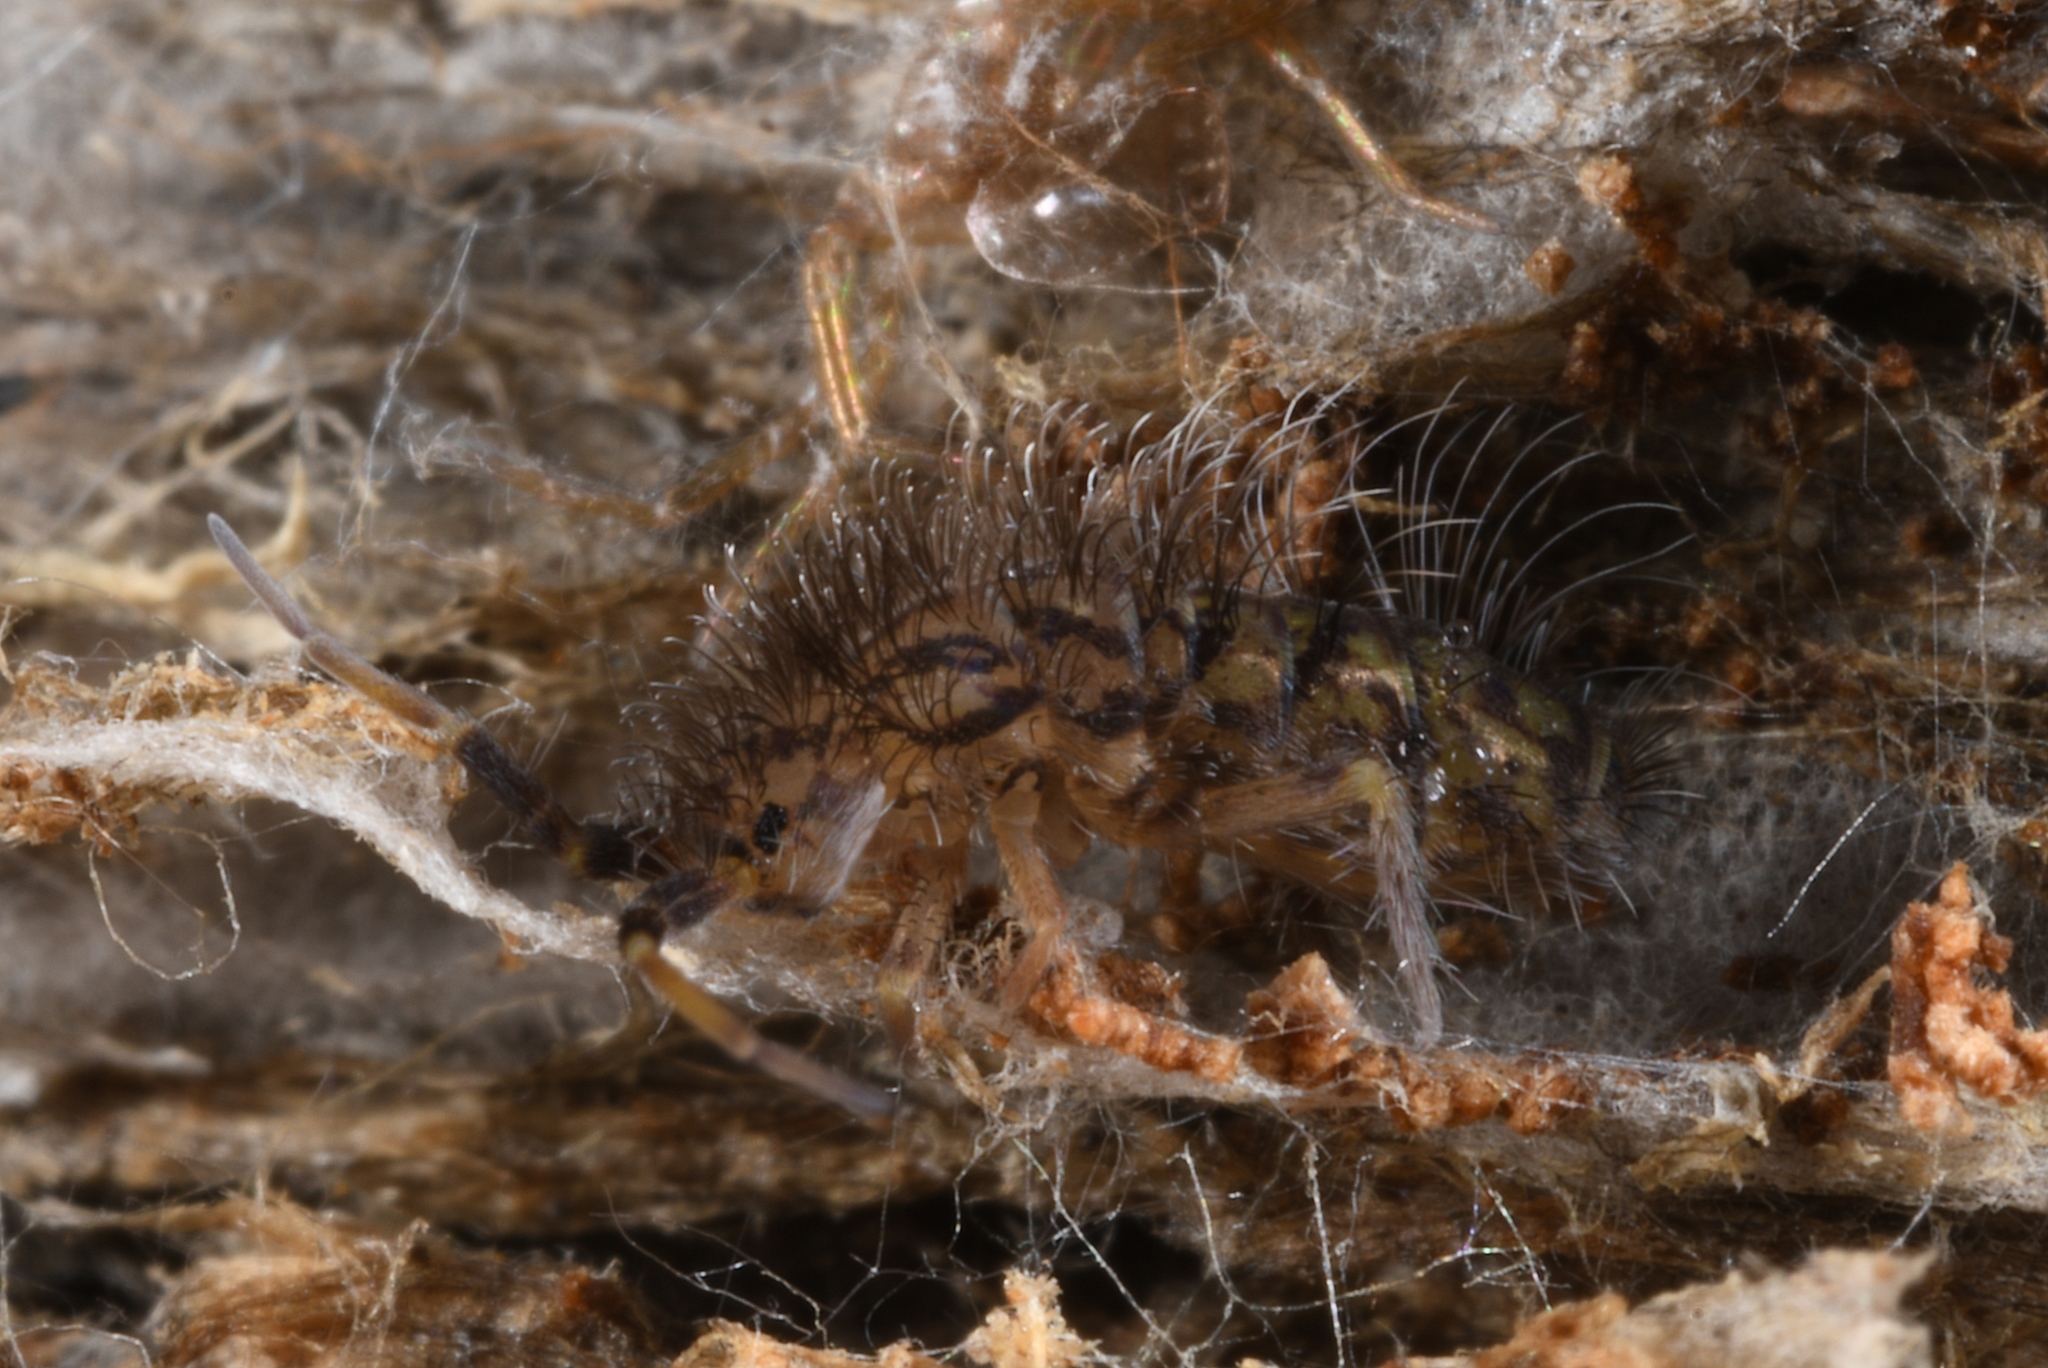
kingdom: Animalia
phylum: Arthropoda
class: Collembola
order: Entomobryomorpha
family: Orchesellidae
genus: Orchesella
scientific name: Orchesella villosa
